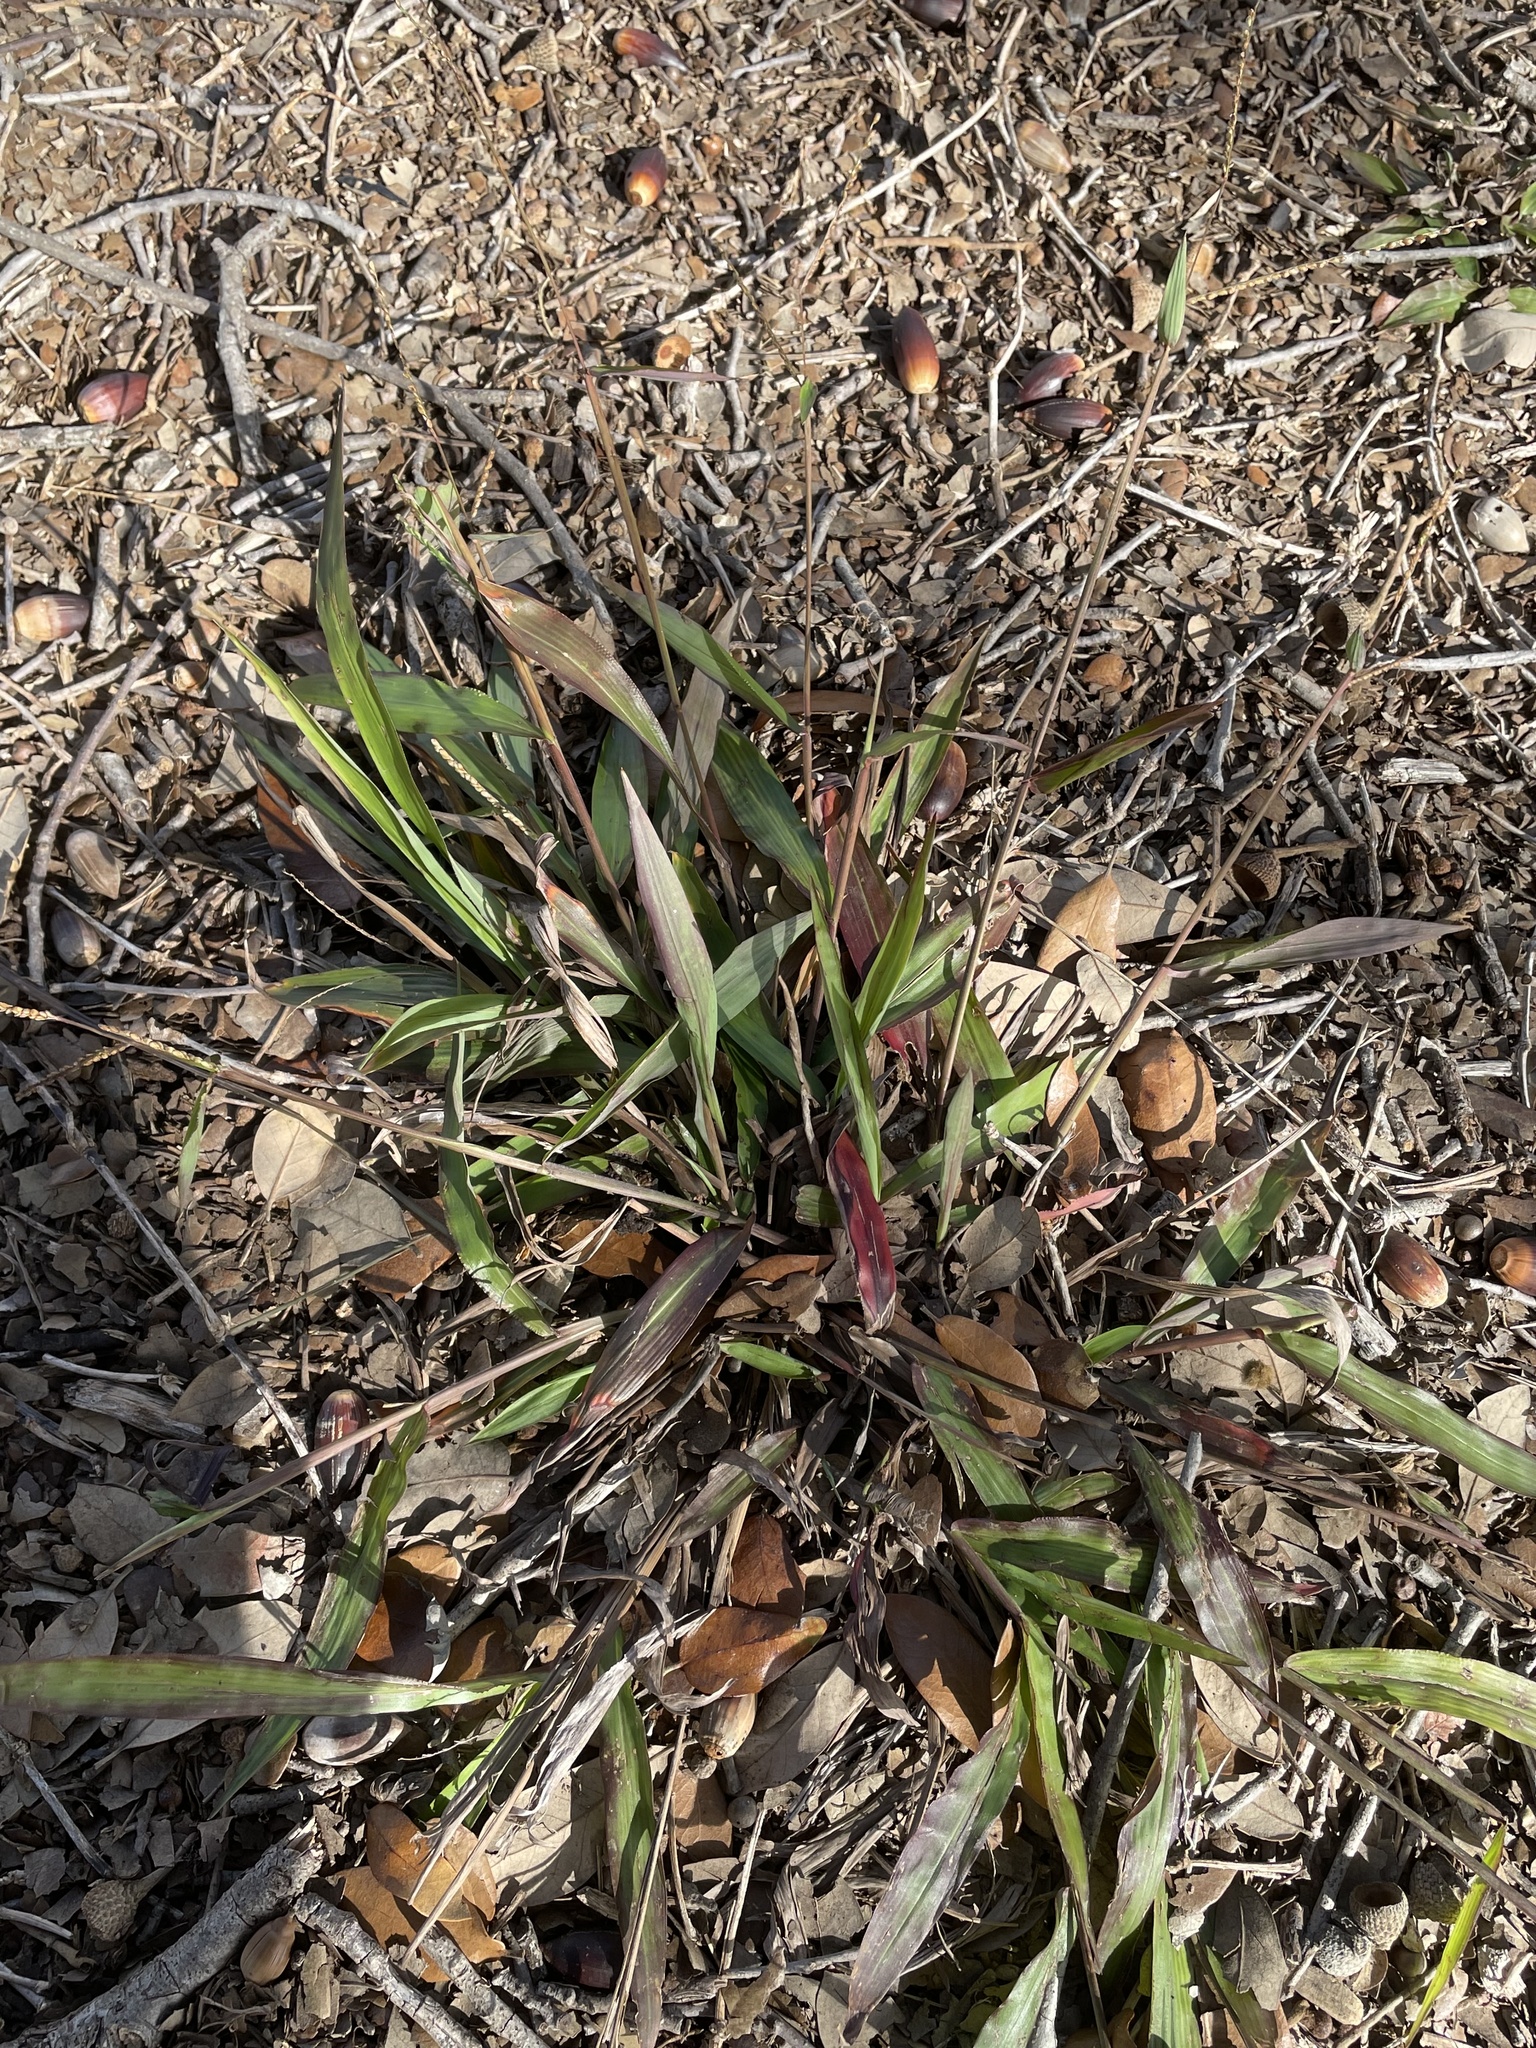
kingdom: Plantae
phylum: Tracheophyta
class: Liliopsida
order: Poales
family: Poaceae
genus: Paspalum
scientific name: Paspalum langei
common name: Rusty-seed paspalum
